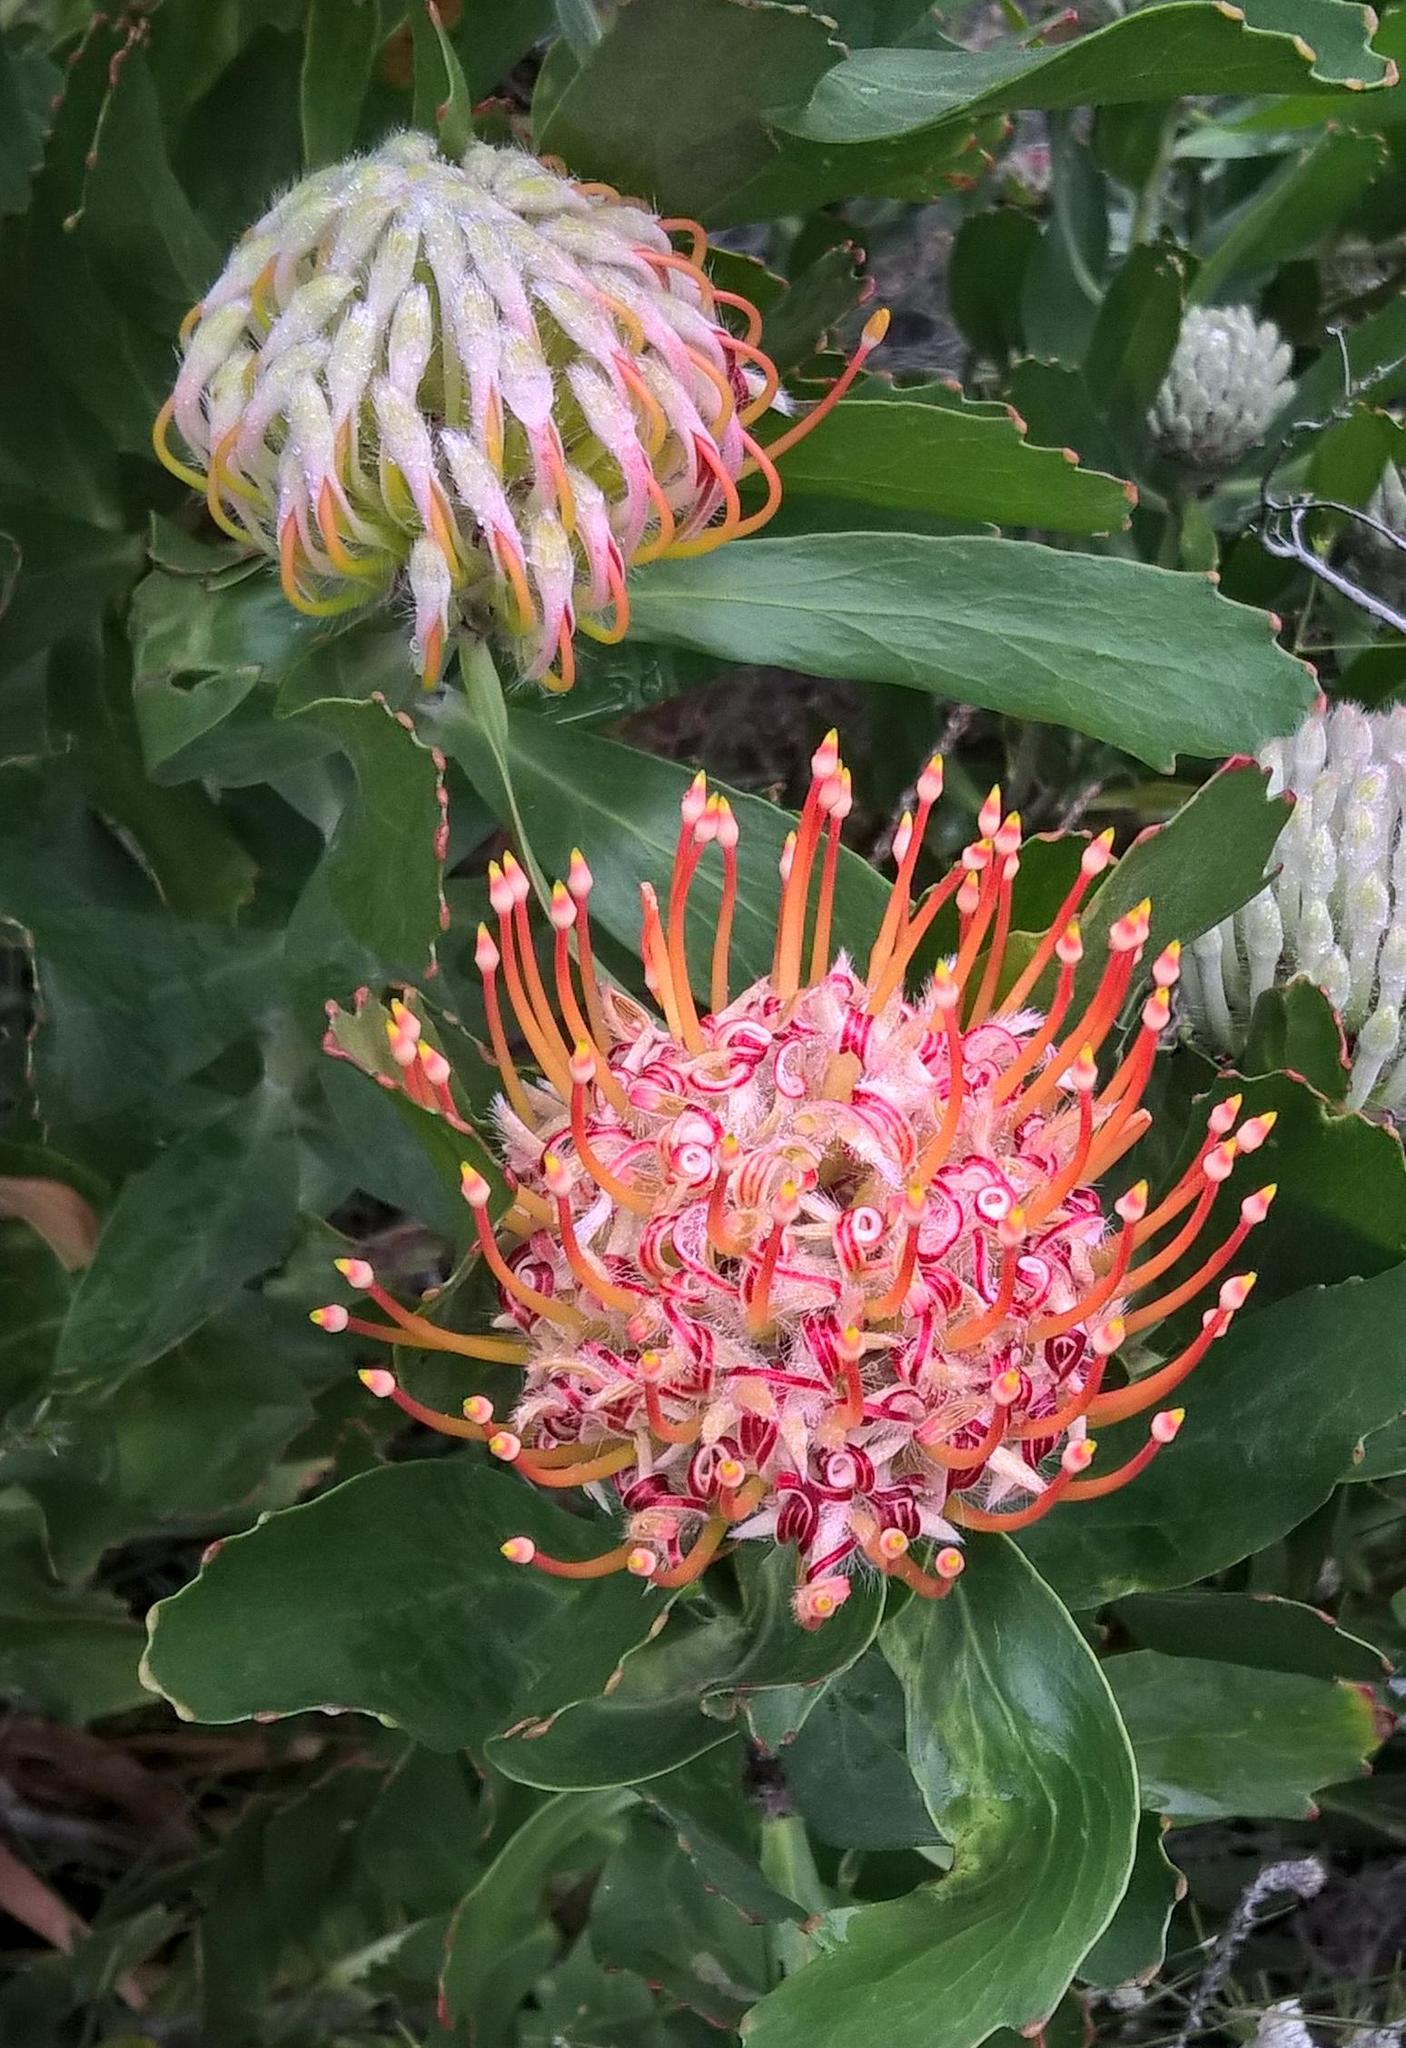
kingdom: Plantae
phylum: Tracheophyta
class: Magnoliopsida
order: Proteales
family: Proteaceae
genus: Leucospermum
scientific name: Leucospermum glabrum
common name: Outeniqua pincushion
